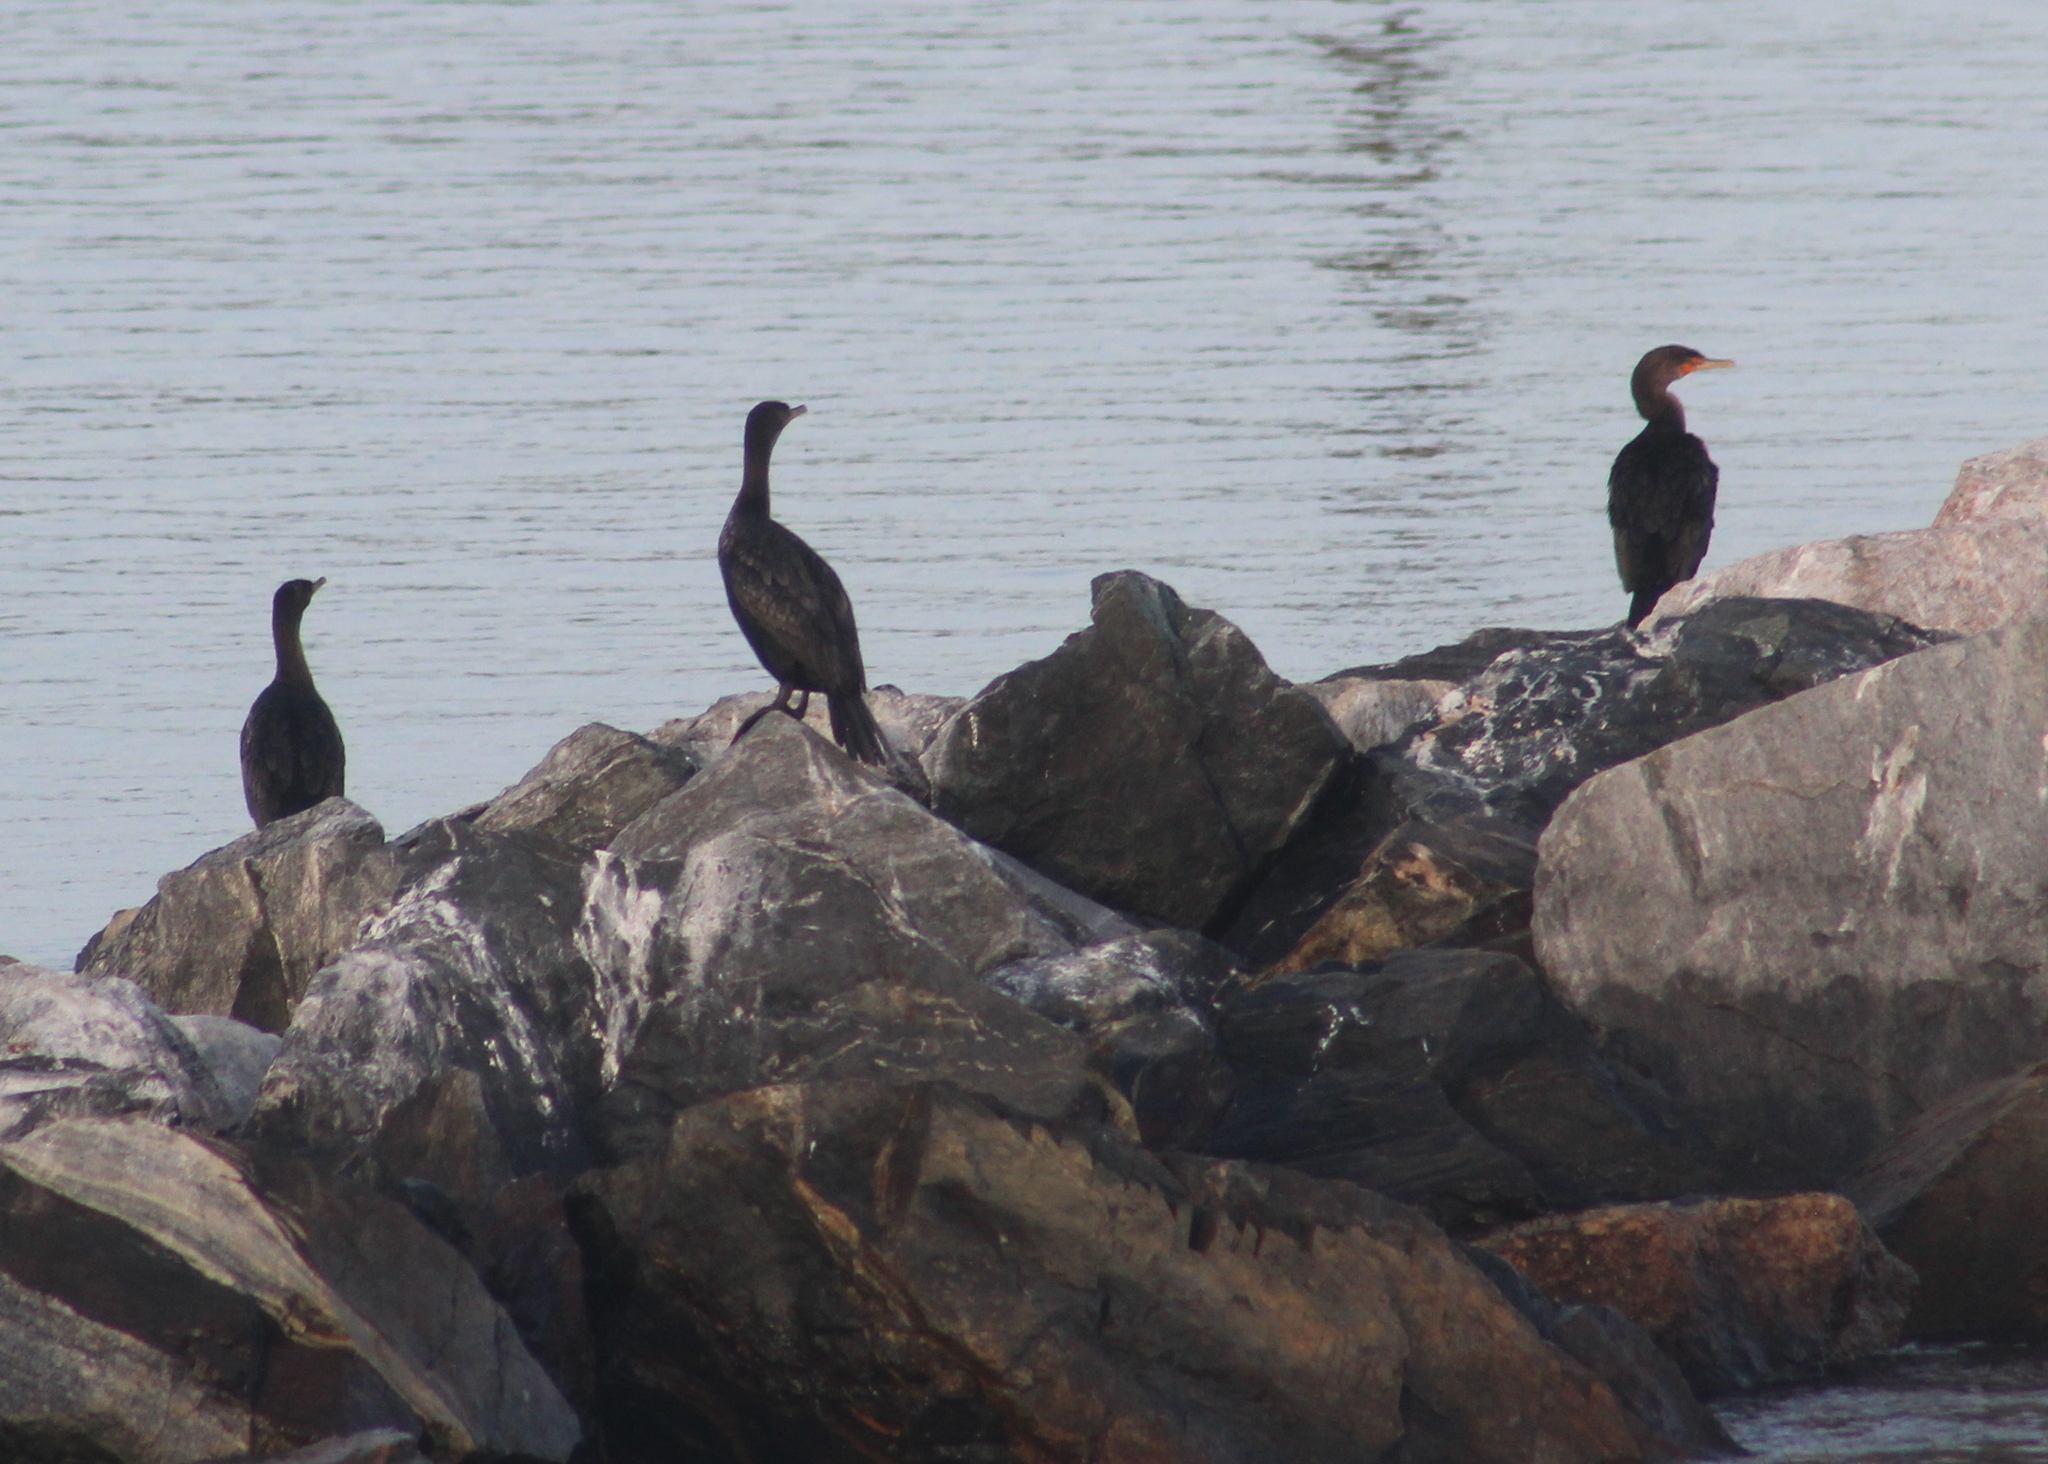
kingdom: Animalia
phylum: Chordata
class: Aves
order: Suliformes
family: Phalacrocoracidae
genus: Phalacrocorax
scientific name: Phalacrocorax auritus
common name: Double-crested cormorant
